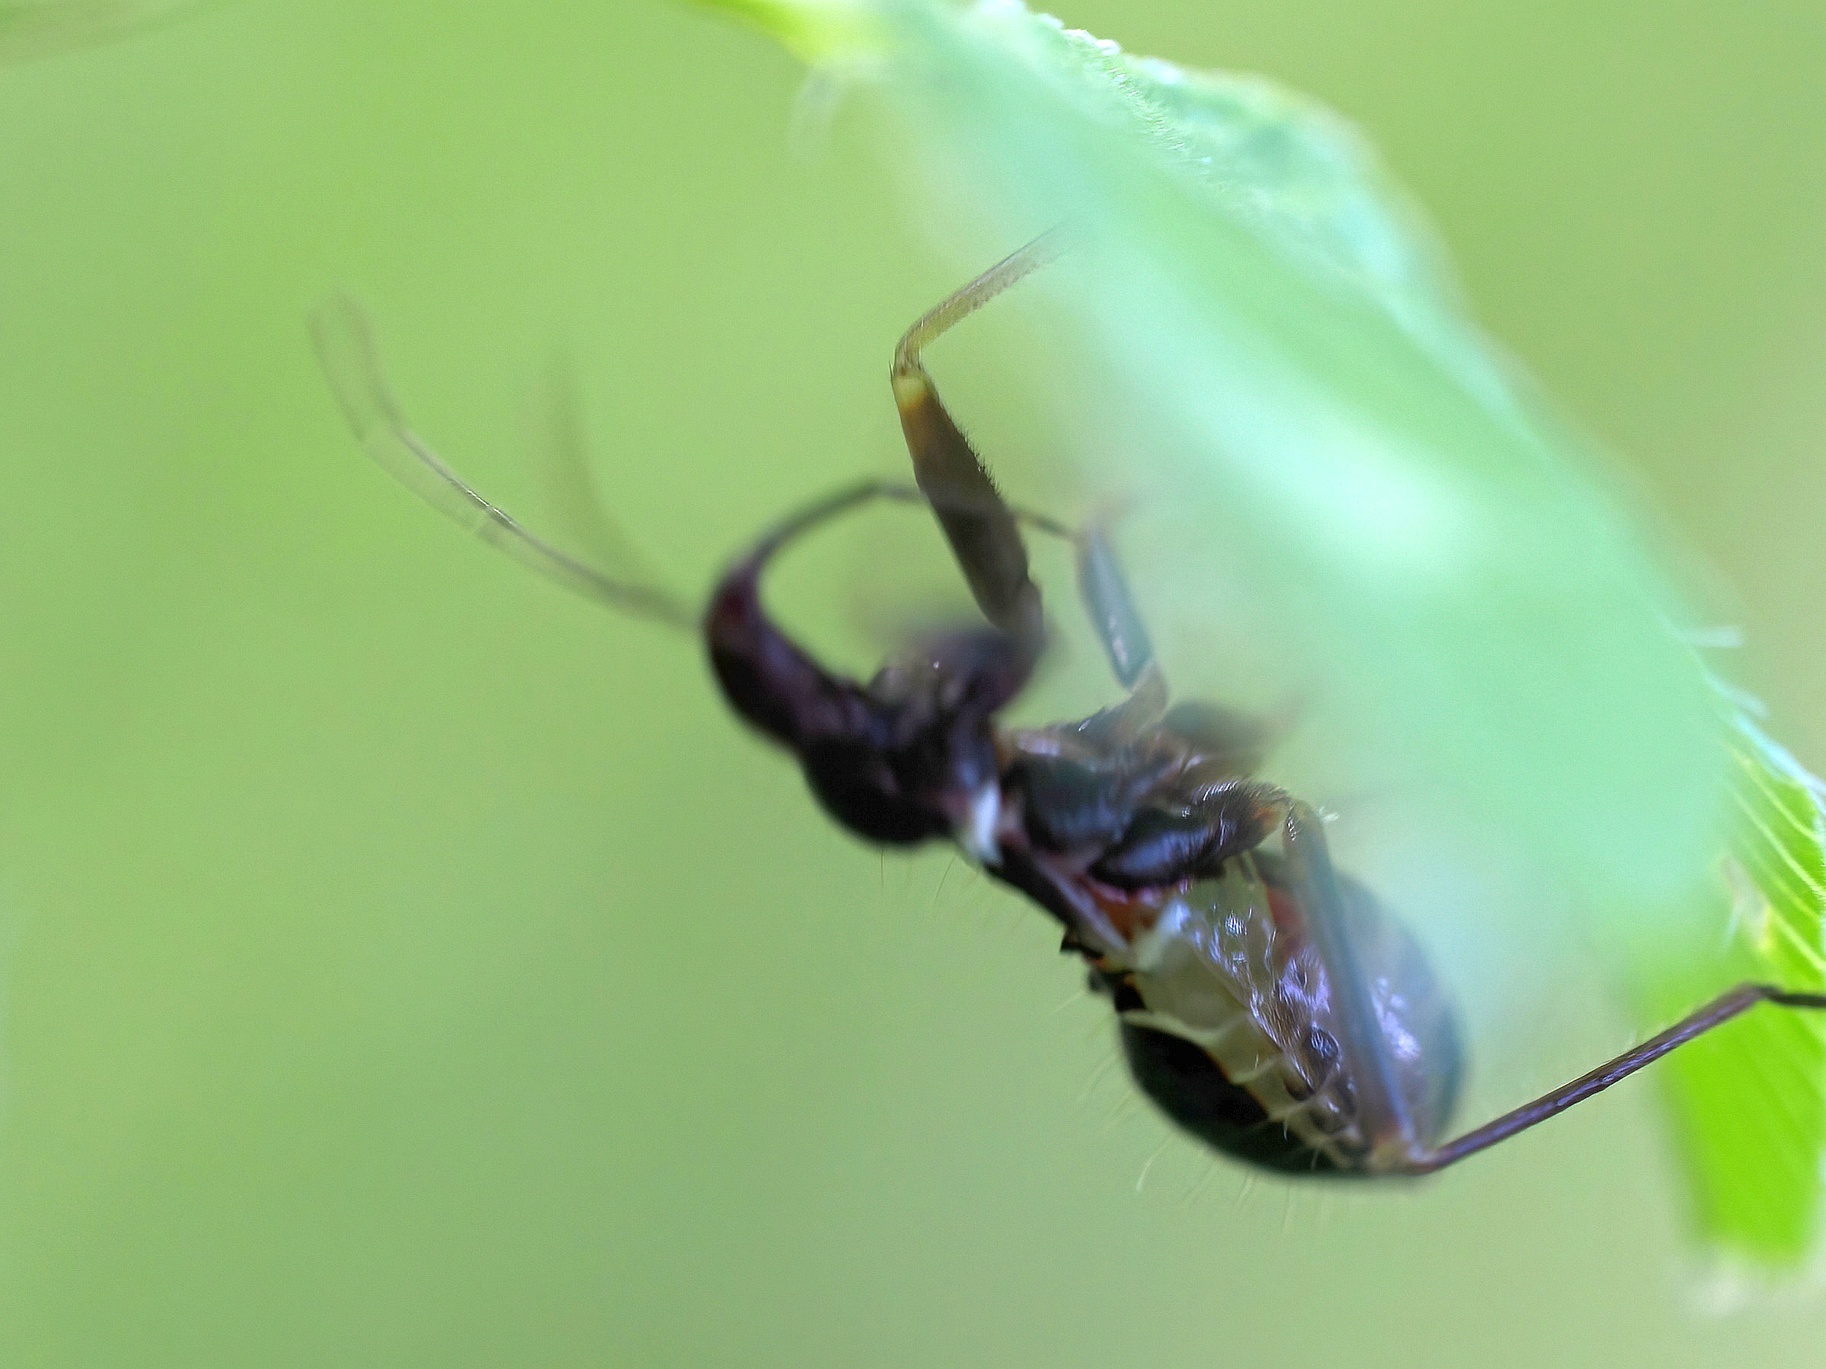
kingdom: Animalia
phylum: Arthropoda
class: Insecta
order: Hemiptera
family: Nabidae
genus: Himacerus
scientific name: Himacerus mirmicoides
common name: Ant damsel bug
